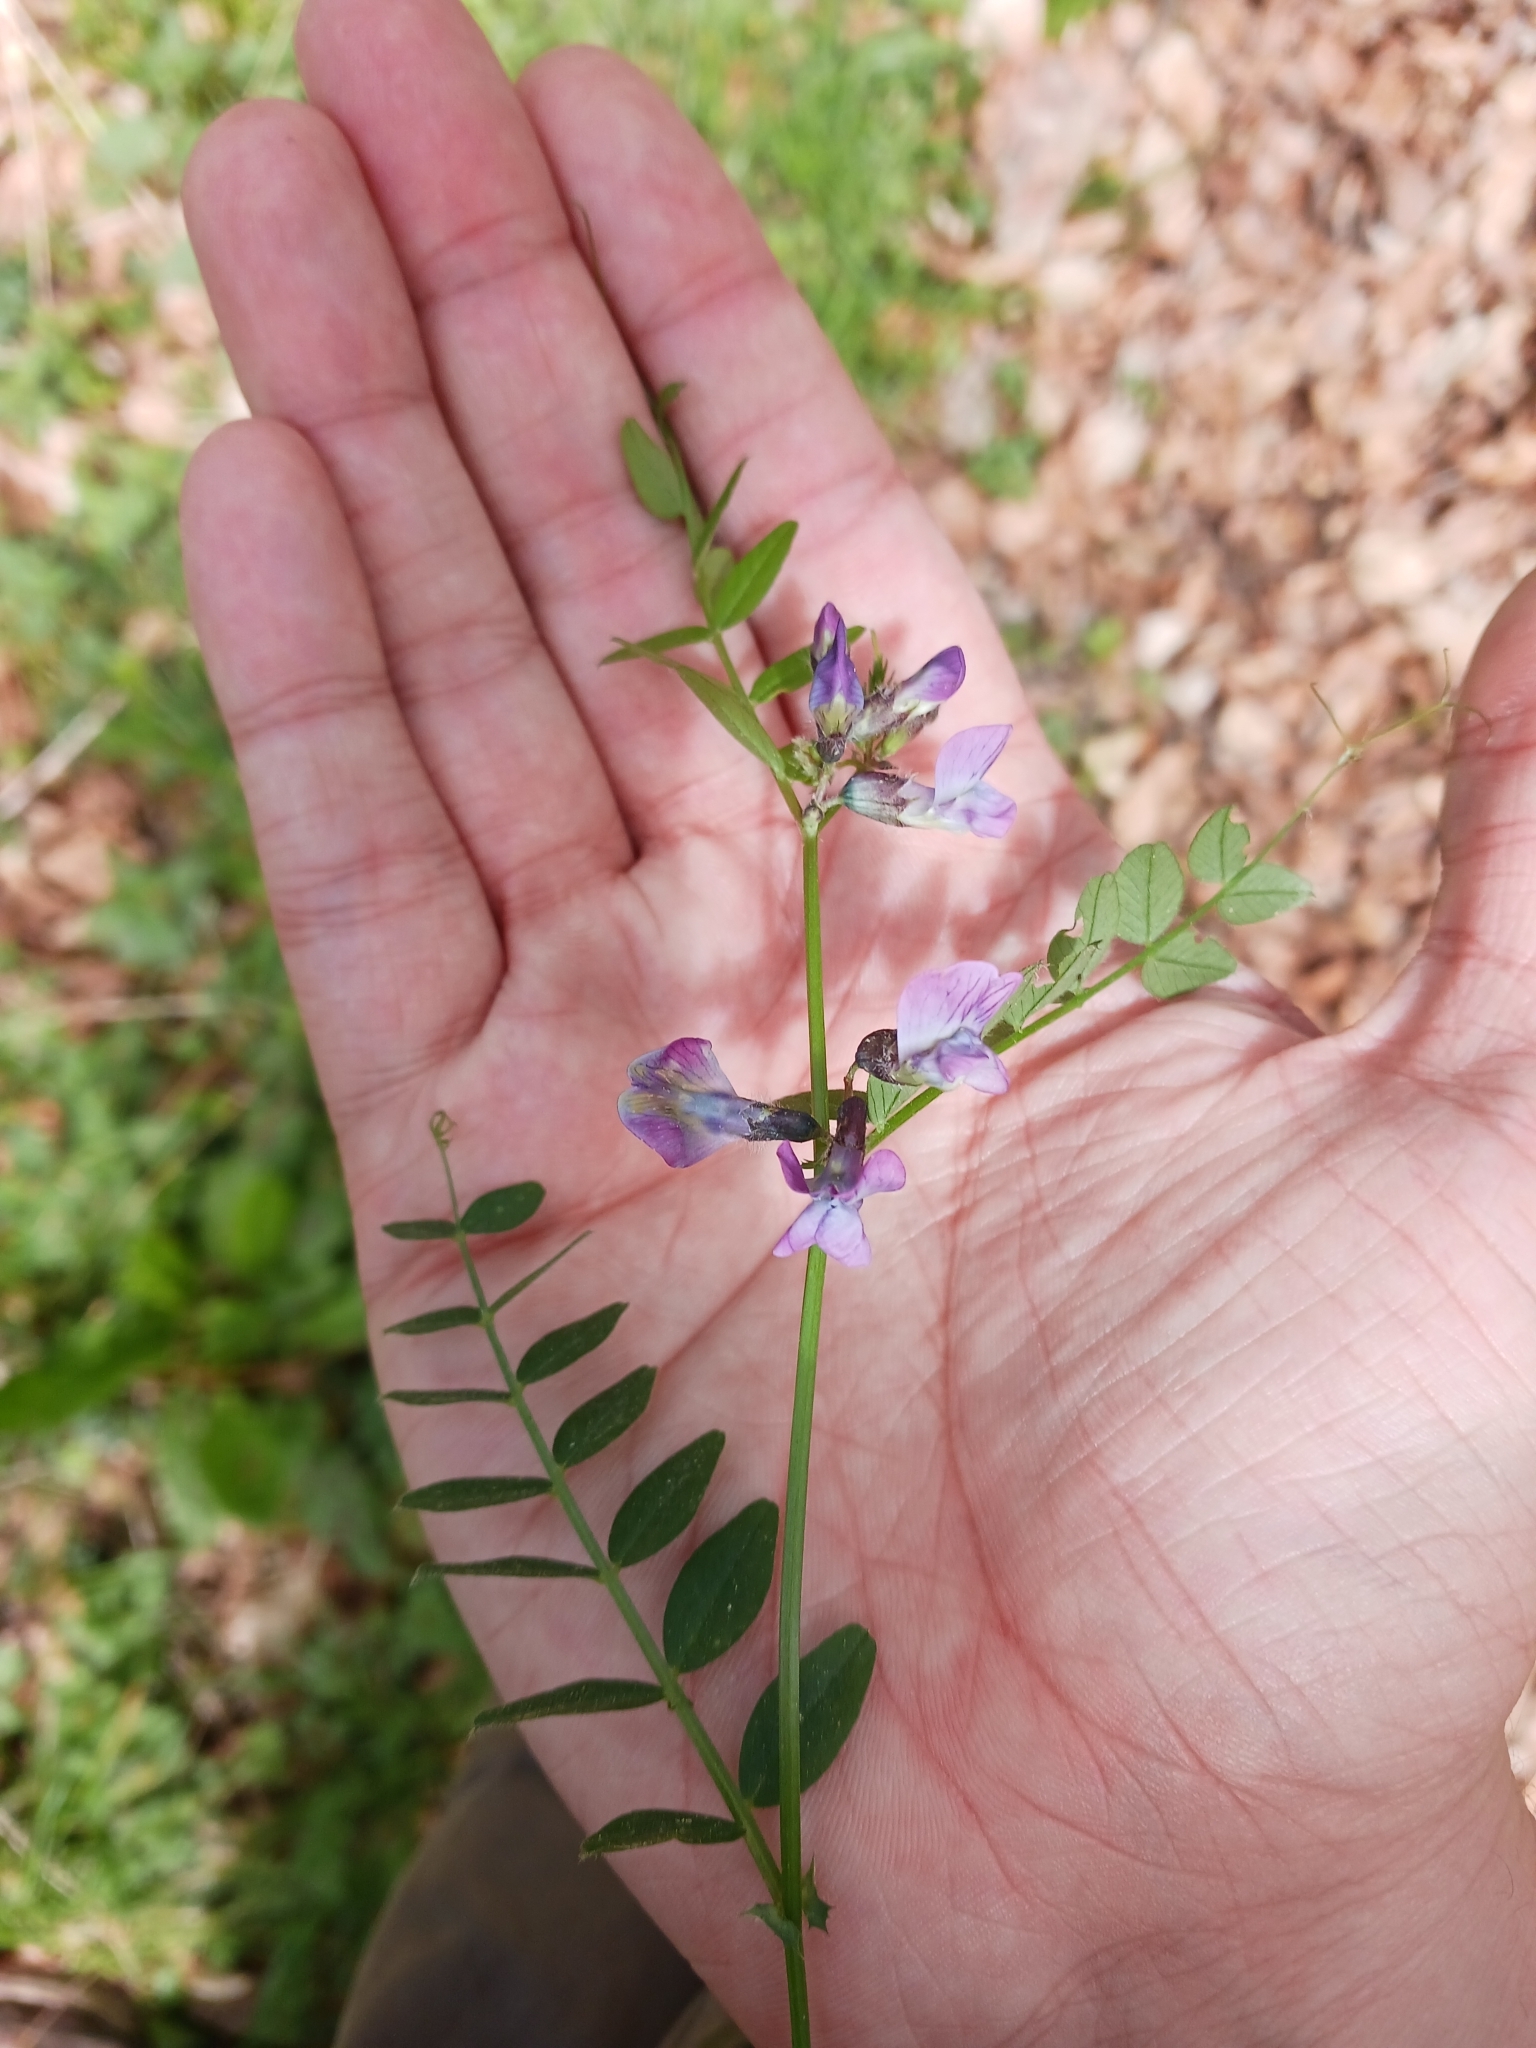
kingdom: Plantae
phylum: Tracheophyta
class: Magnoliopsida
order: Fabales
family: Fabaceae
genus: Vicia
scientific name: Vicia sepium
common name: Bush vetch
